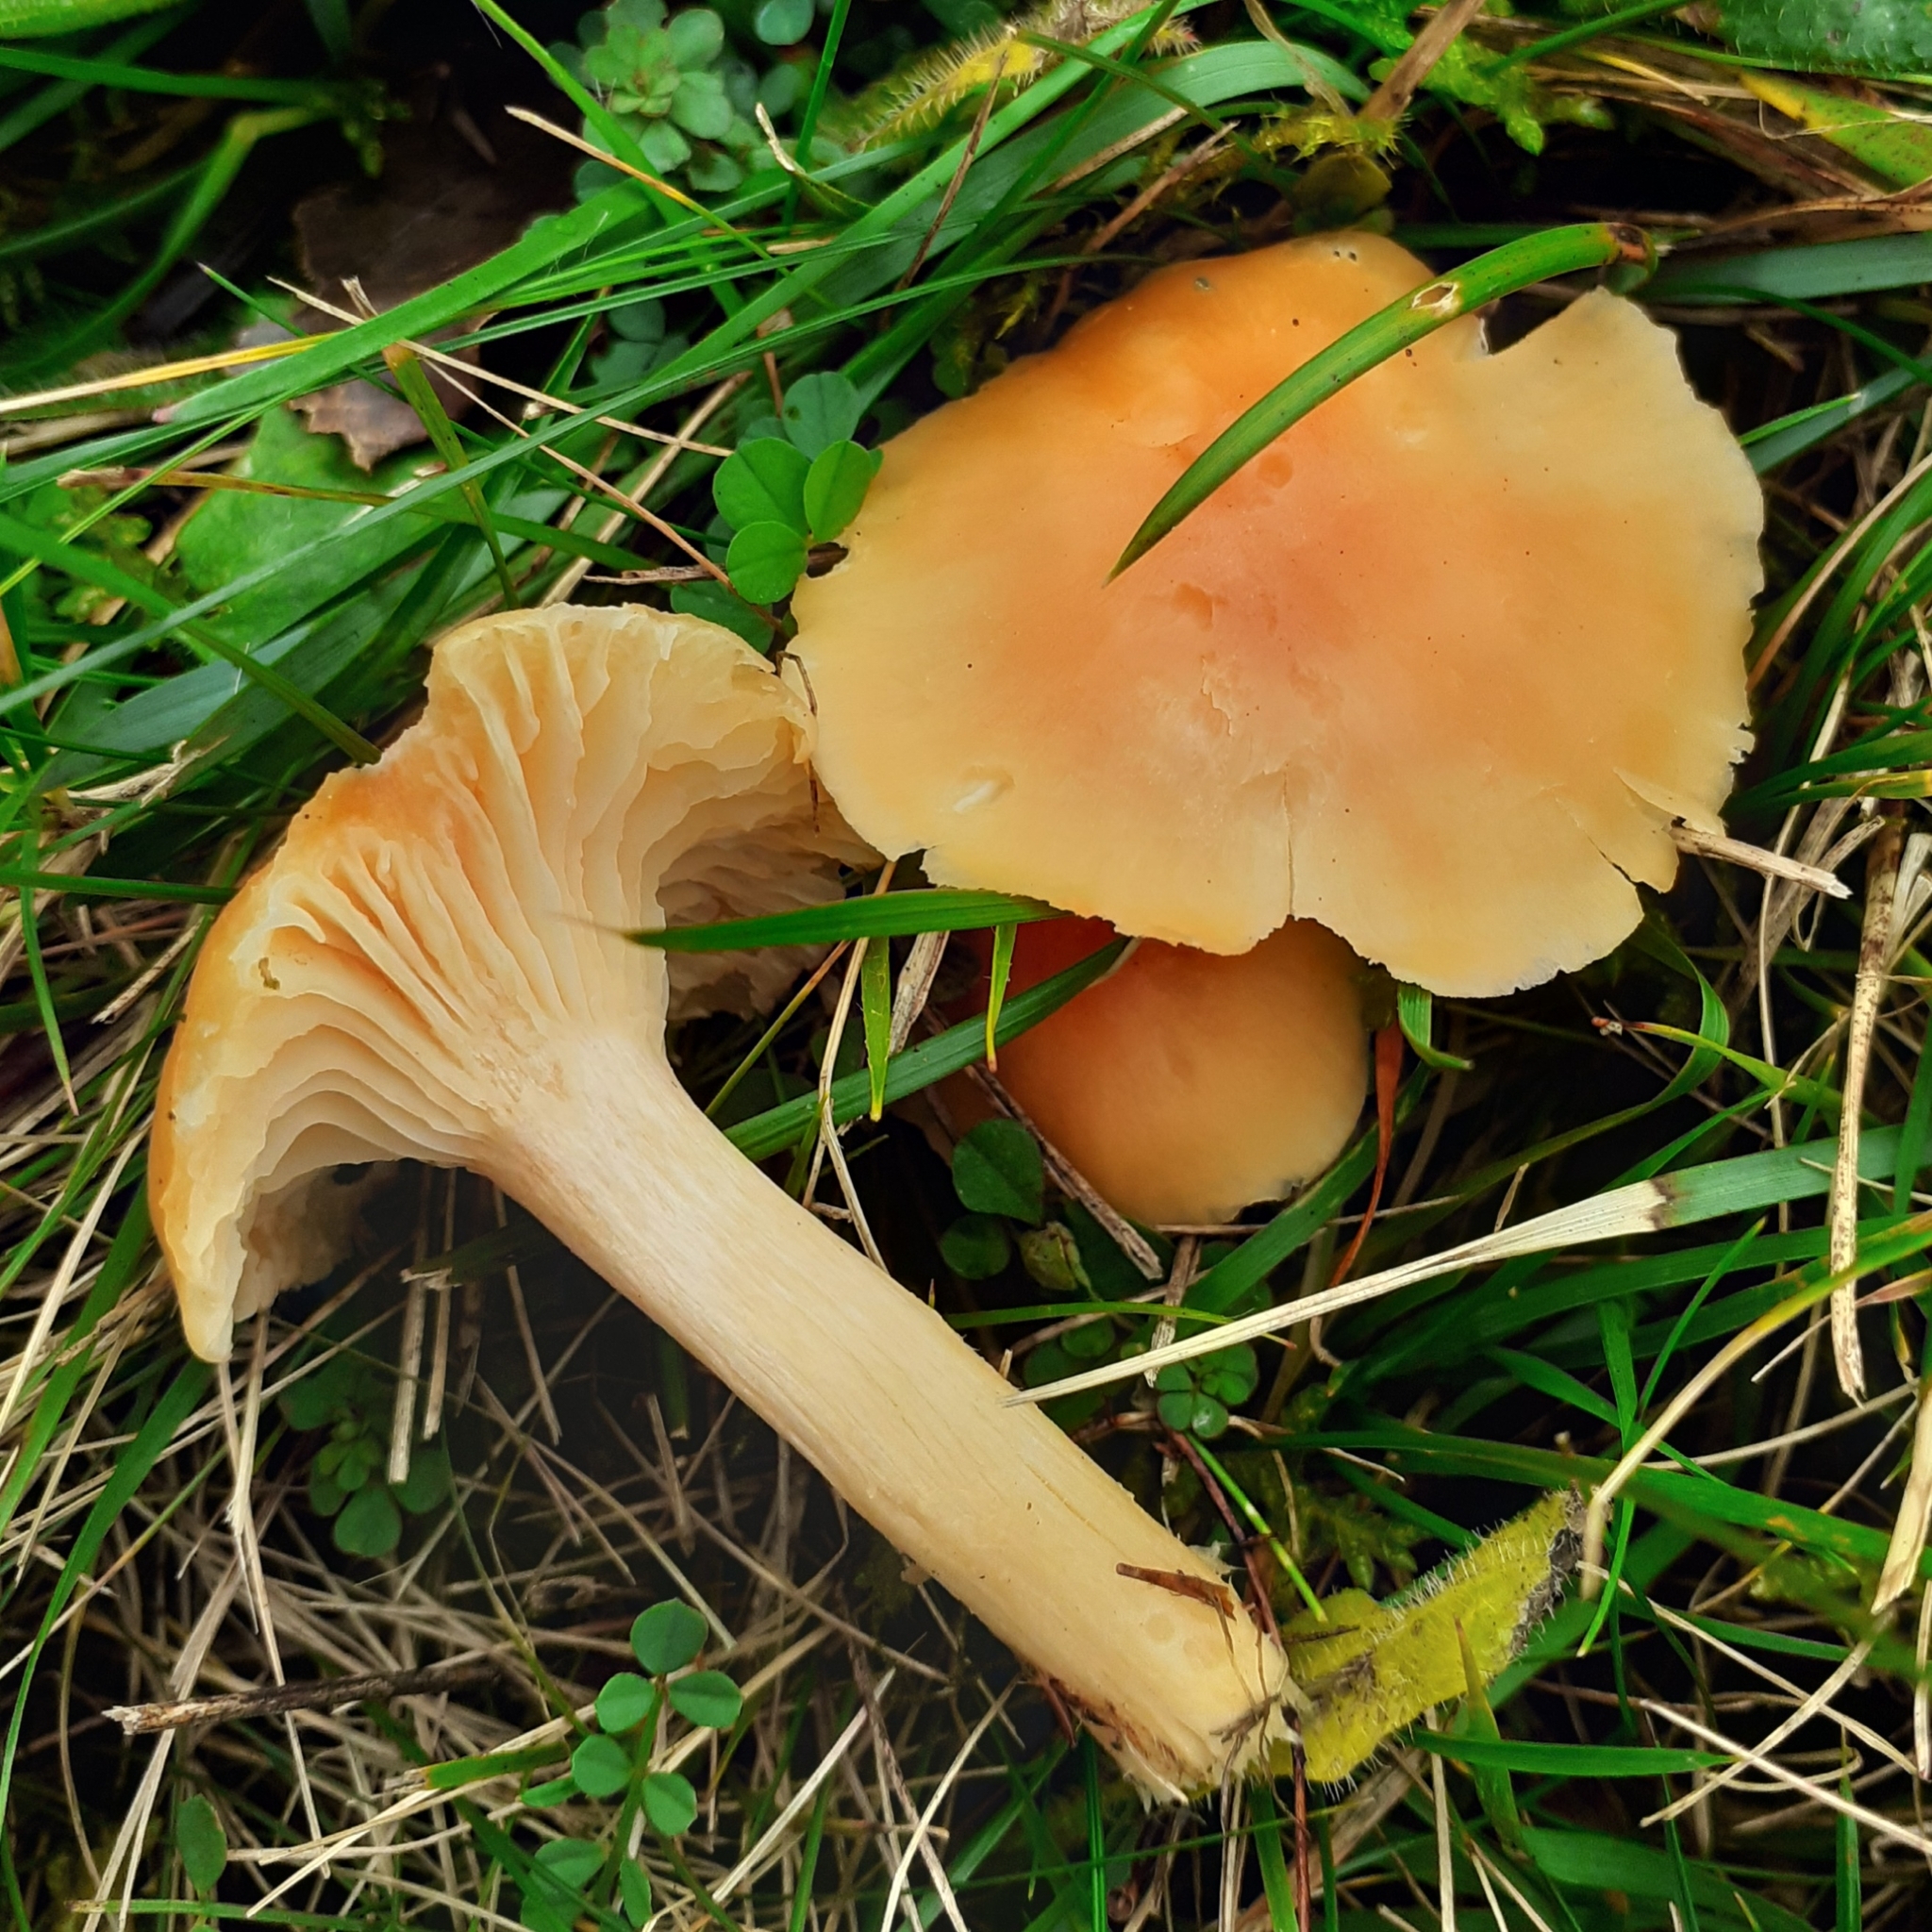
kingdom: Fungi
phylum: Basidiomycota
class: Agaricomycetes
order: Agaricales
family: Hygrophoraceae
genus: Cuphophyllus
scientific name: Cuphophyllus pratensis
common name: Meadow waxcap
